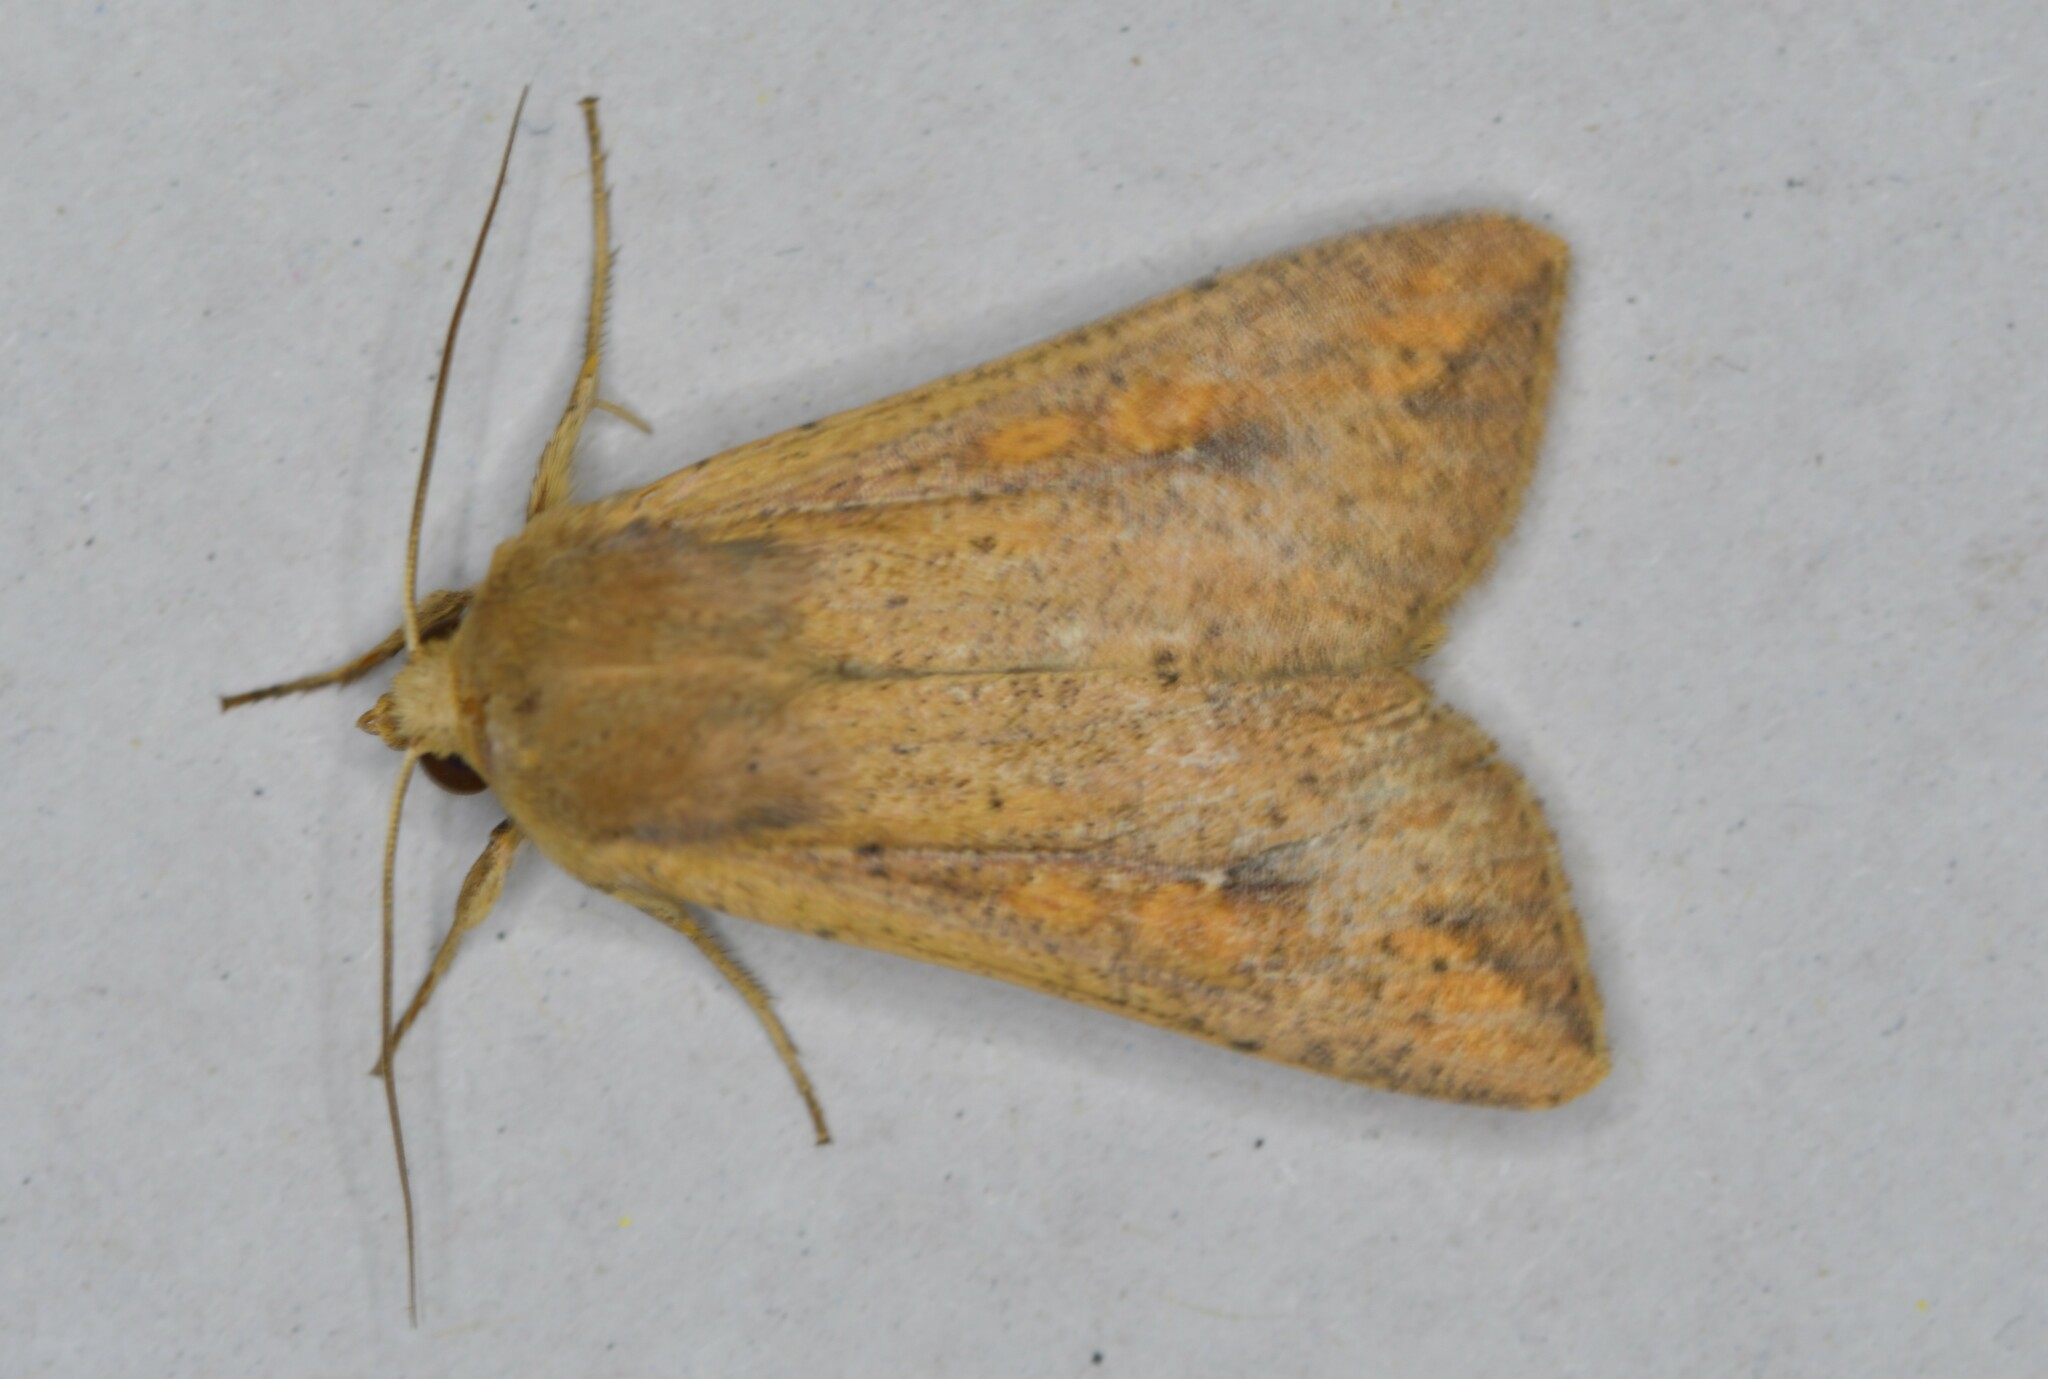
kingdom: Animalia
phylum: Arthropoda
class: Insecta
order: Lepidoptera
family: Noctuidae
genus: Mythimna
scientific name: Mythimna unipuncta
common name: White-speck
